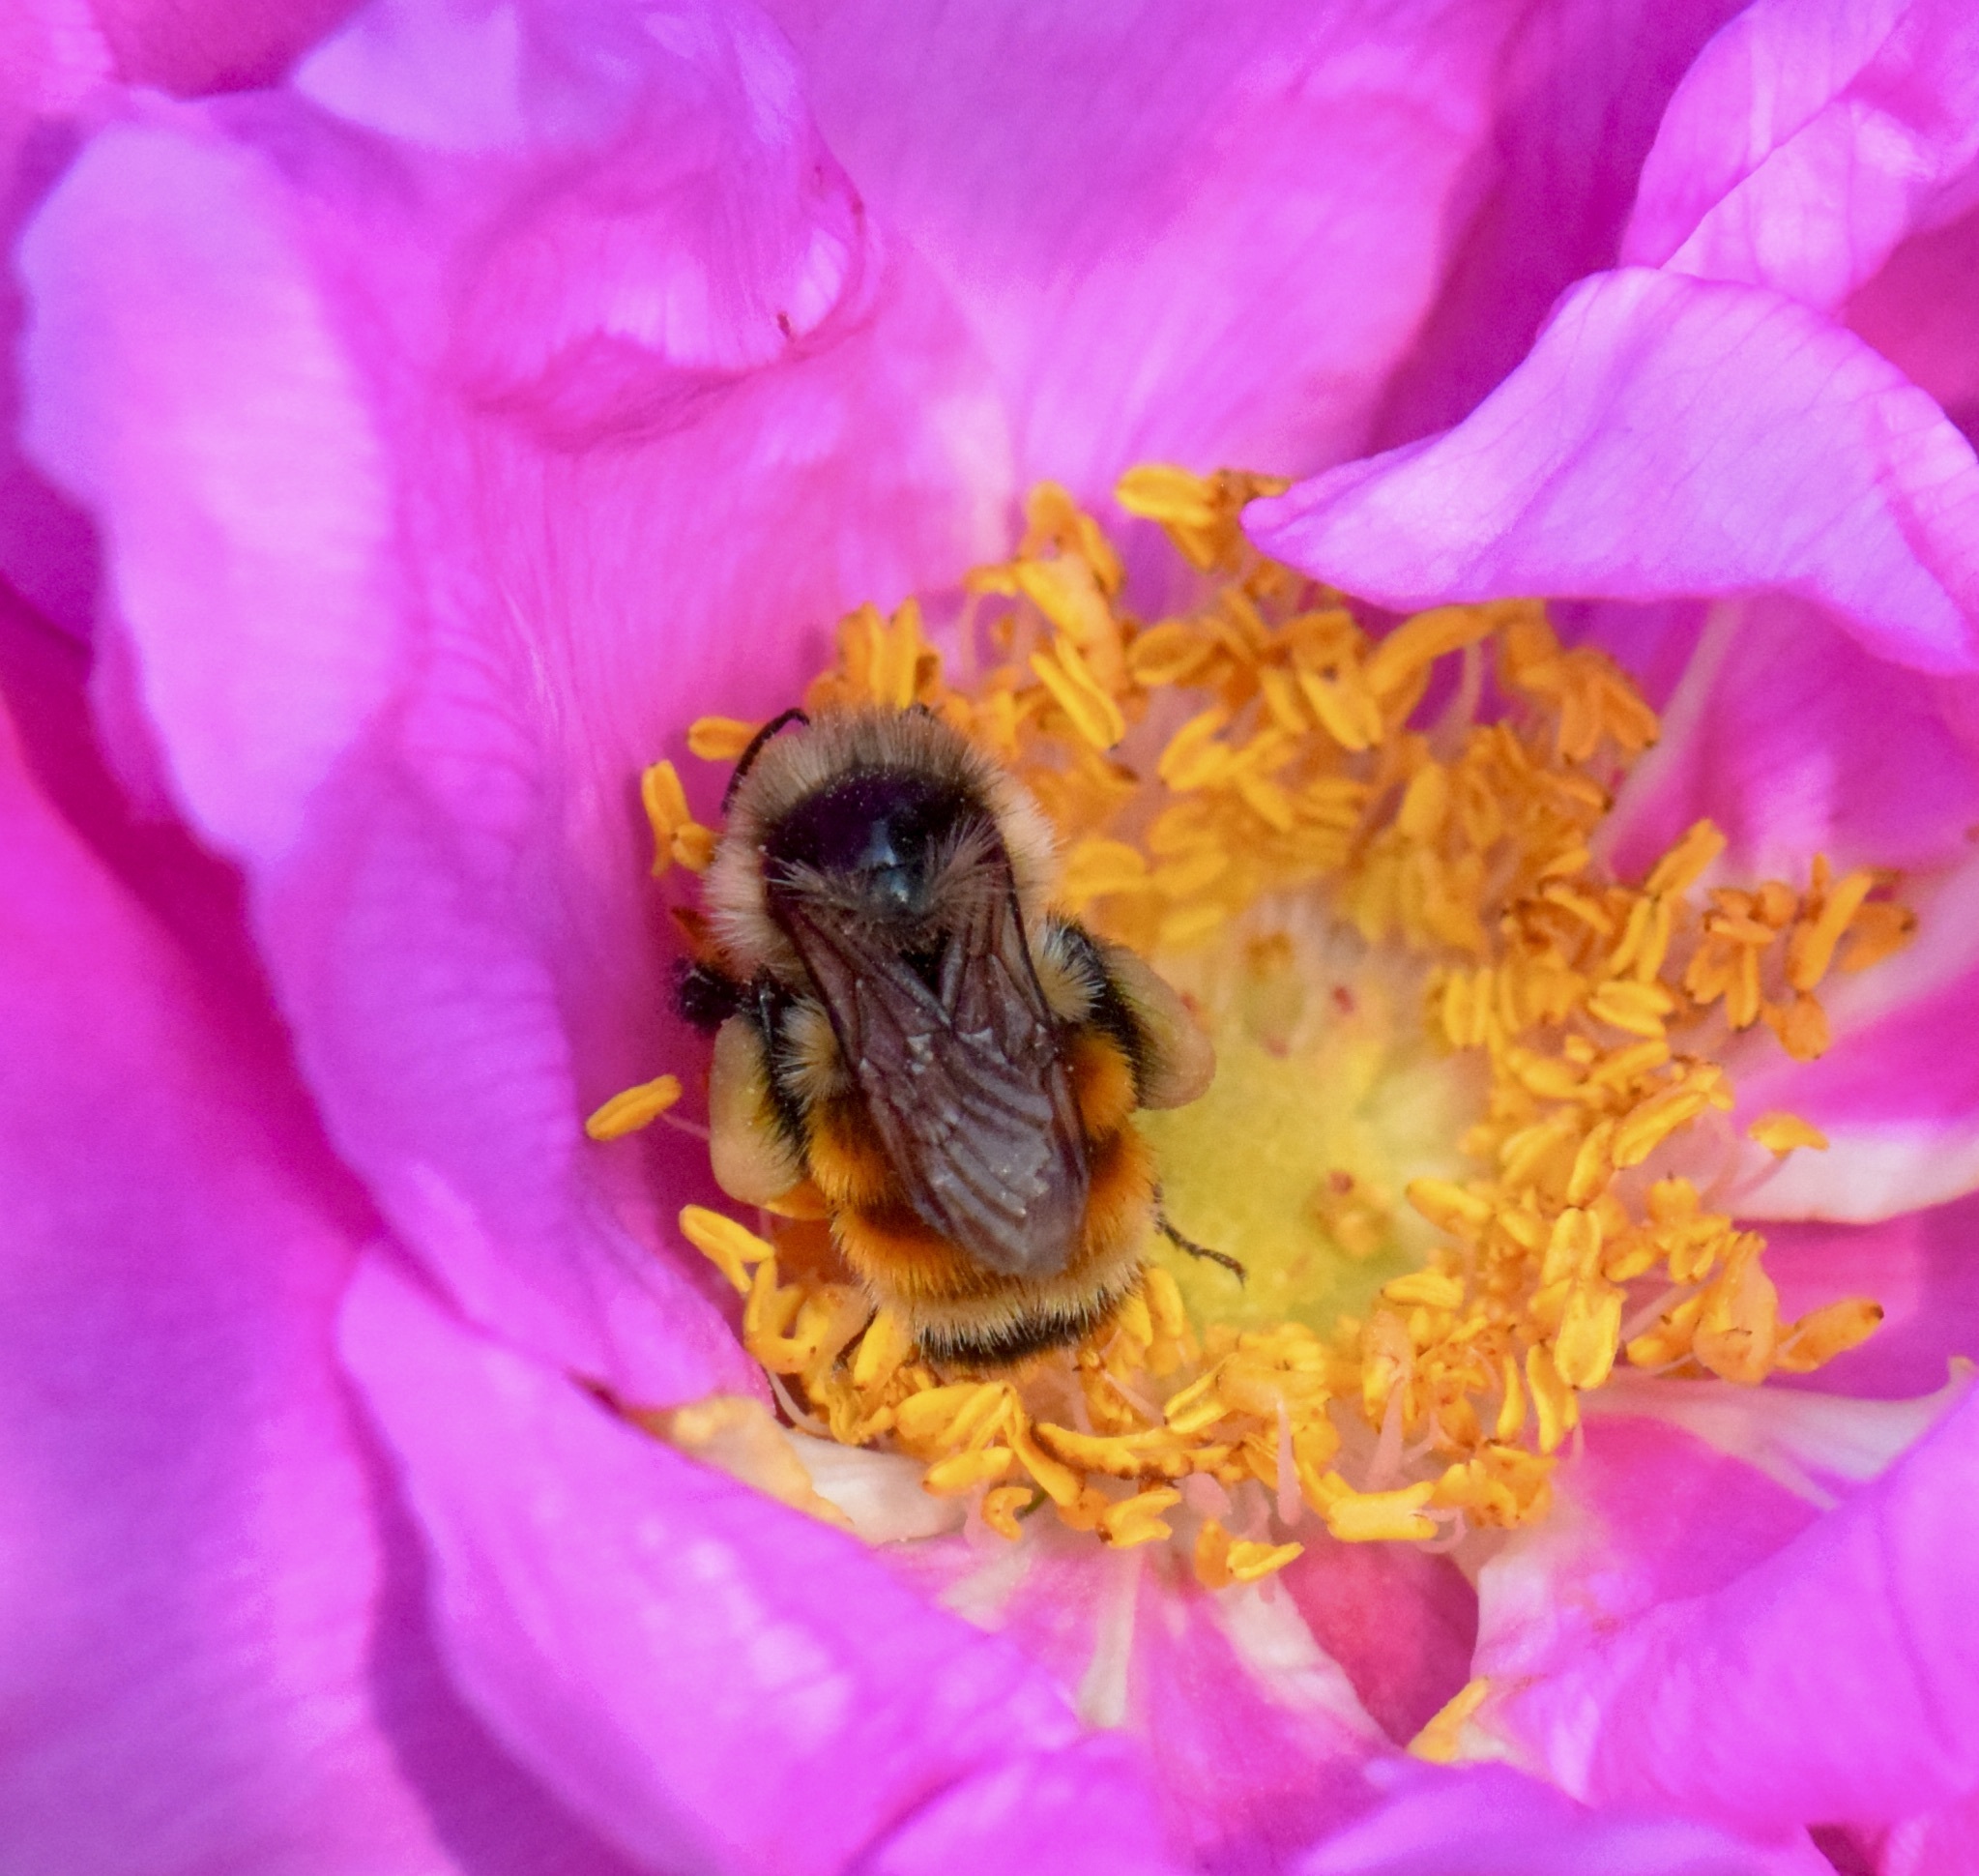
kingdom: Animalia
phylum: Arthropoda
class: Insecta
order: Hymenoptera
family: Apidae
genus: Bombus
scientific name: Bombus ternarius
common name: Tri-colored bumble bee
